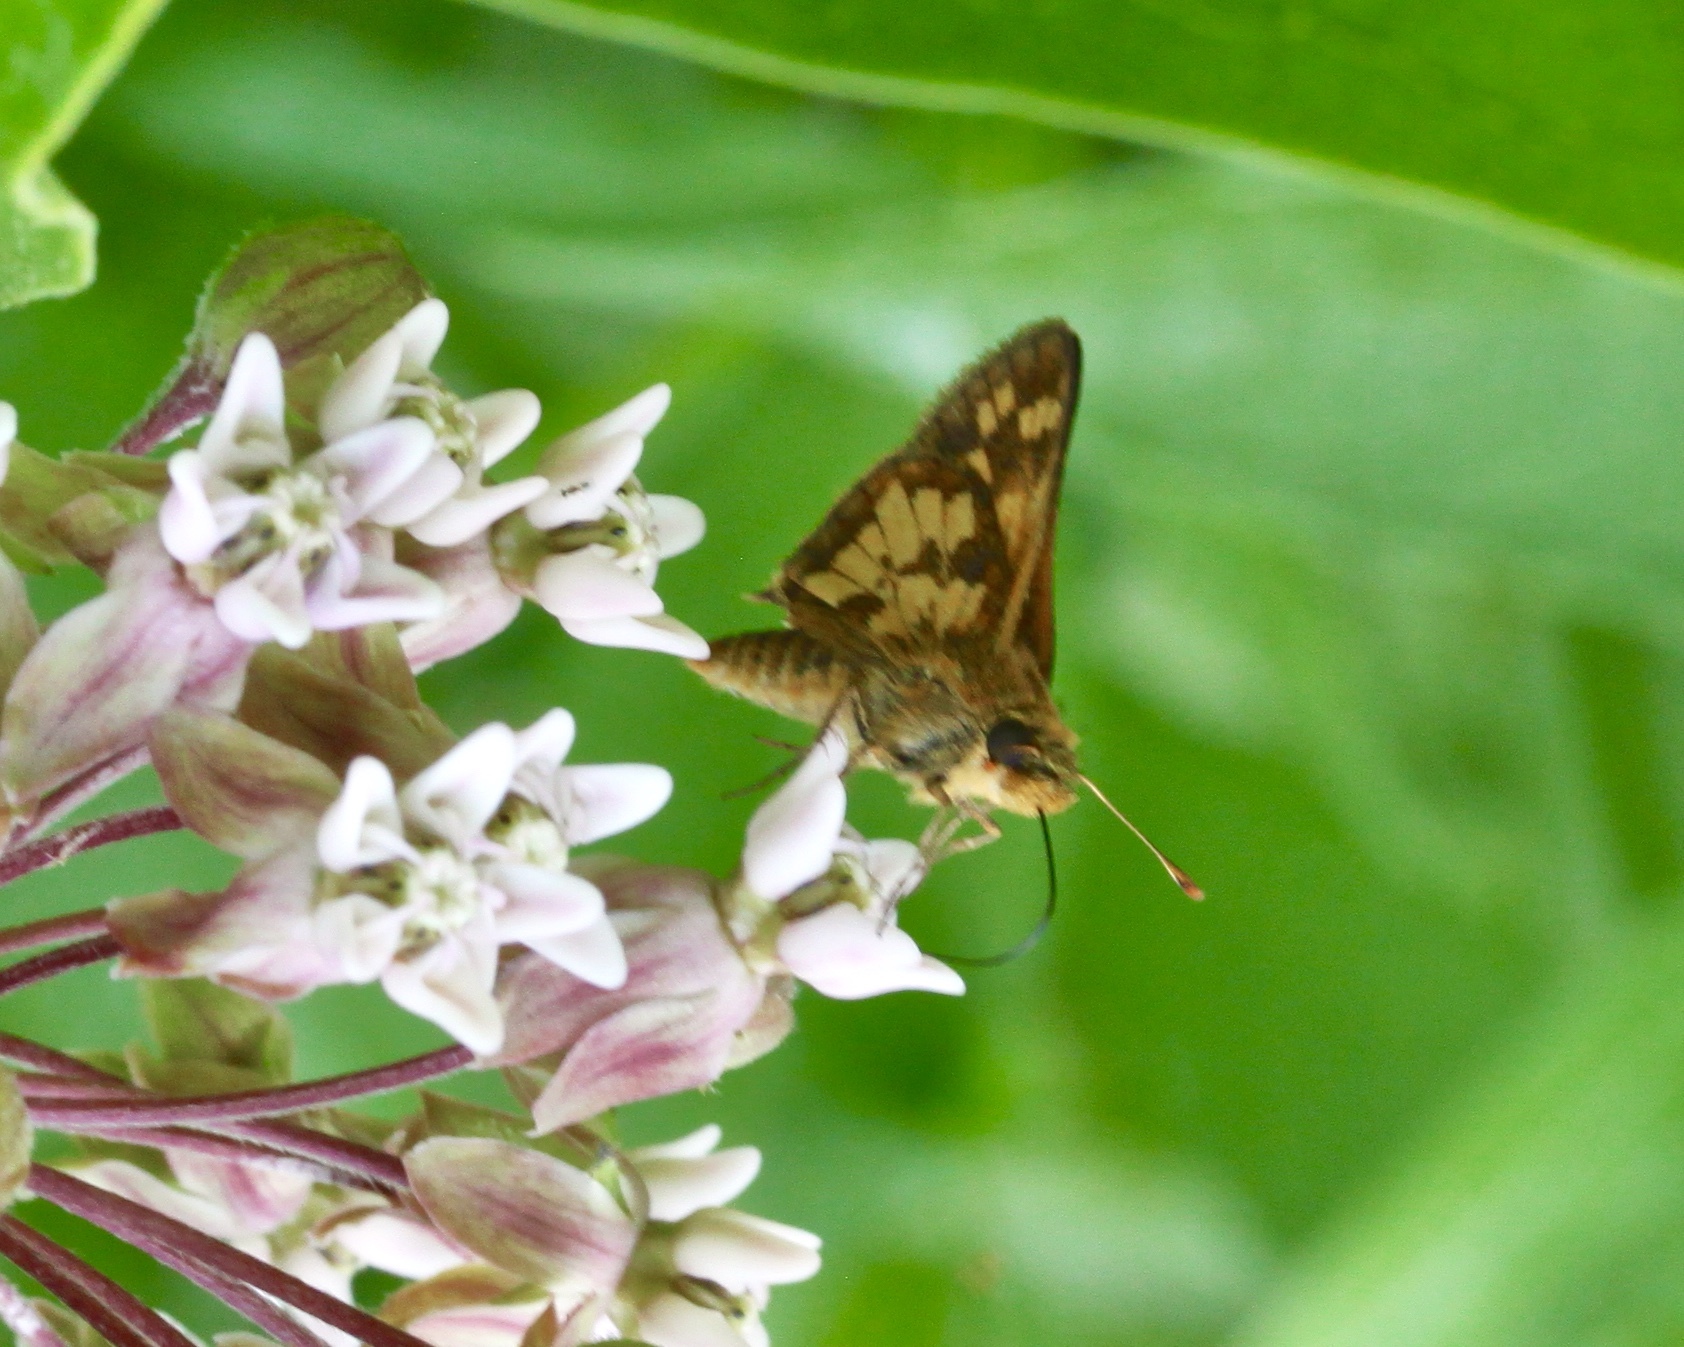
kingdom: Animalia
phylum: Arthropoda
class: Insecta
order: Lepidoptera
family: Hesperiidae
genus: Polites
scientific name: Polites coras
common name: Peck's skipper
